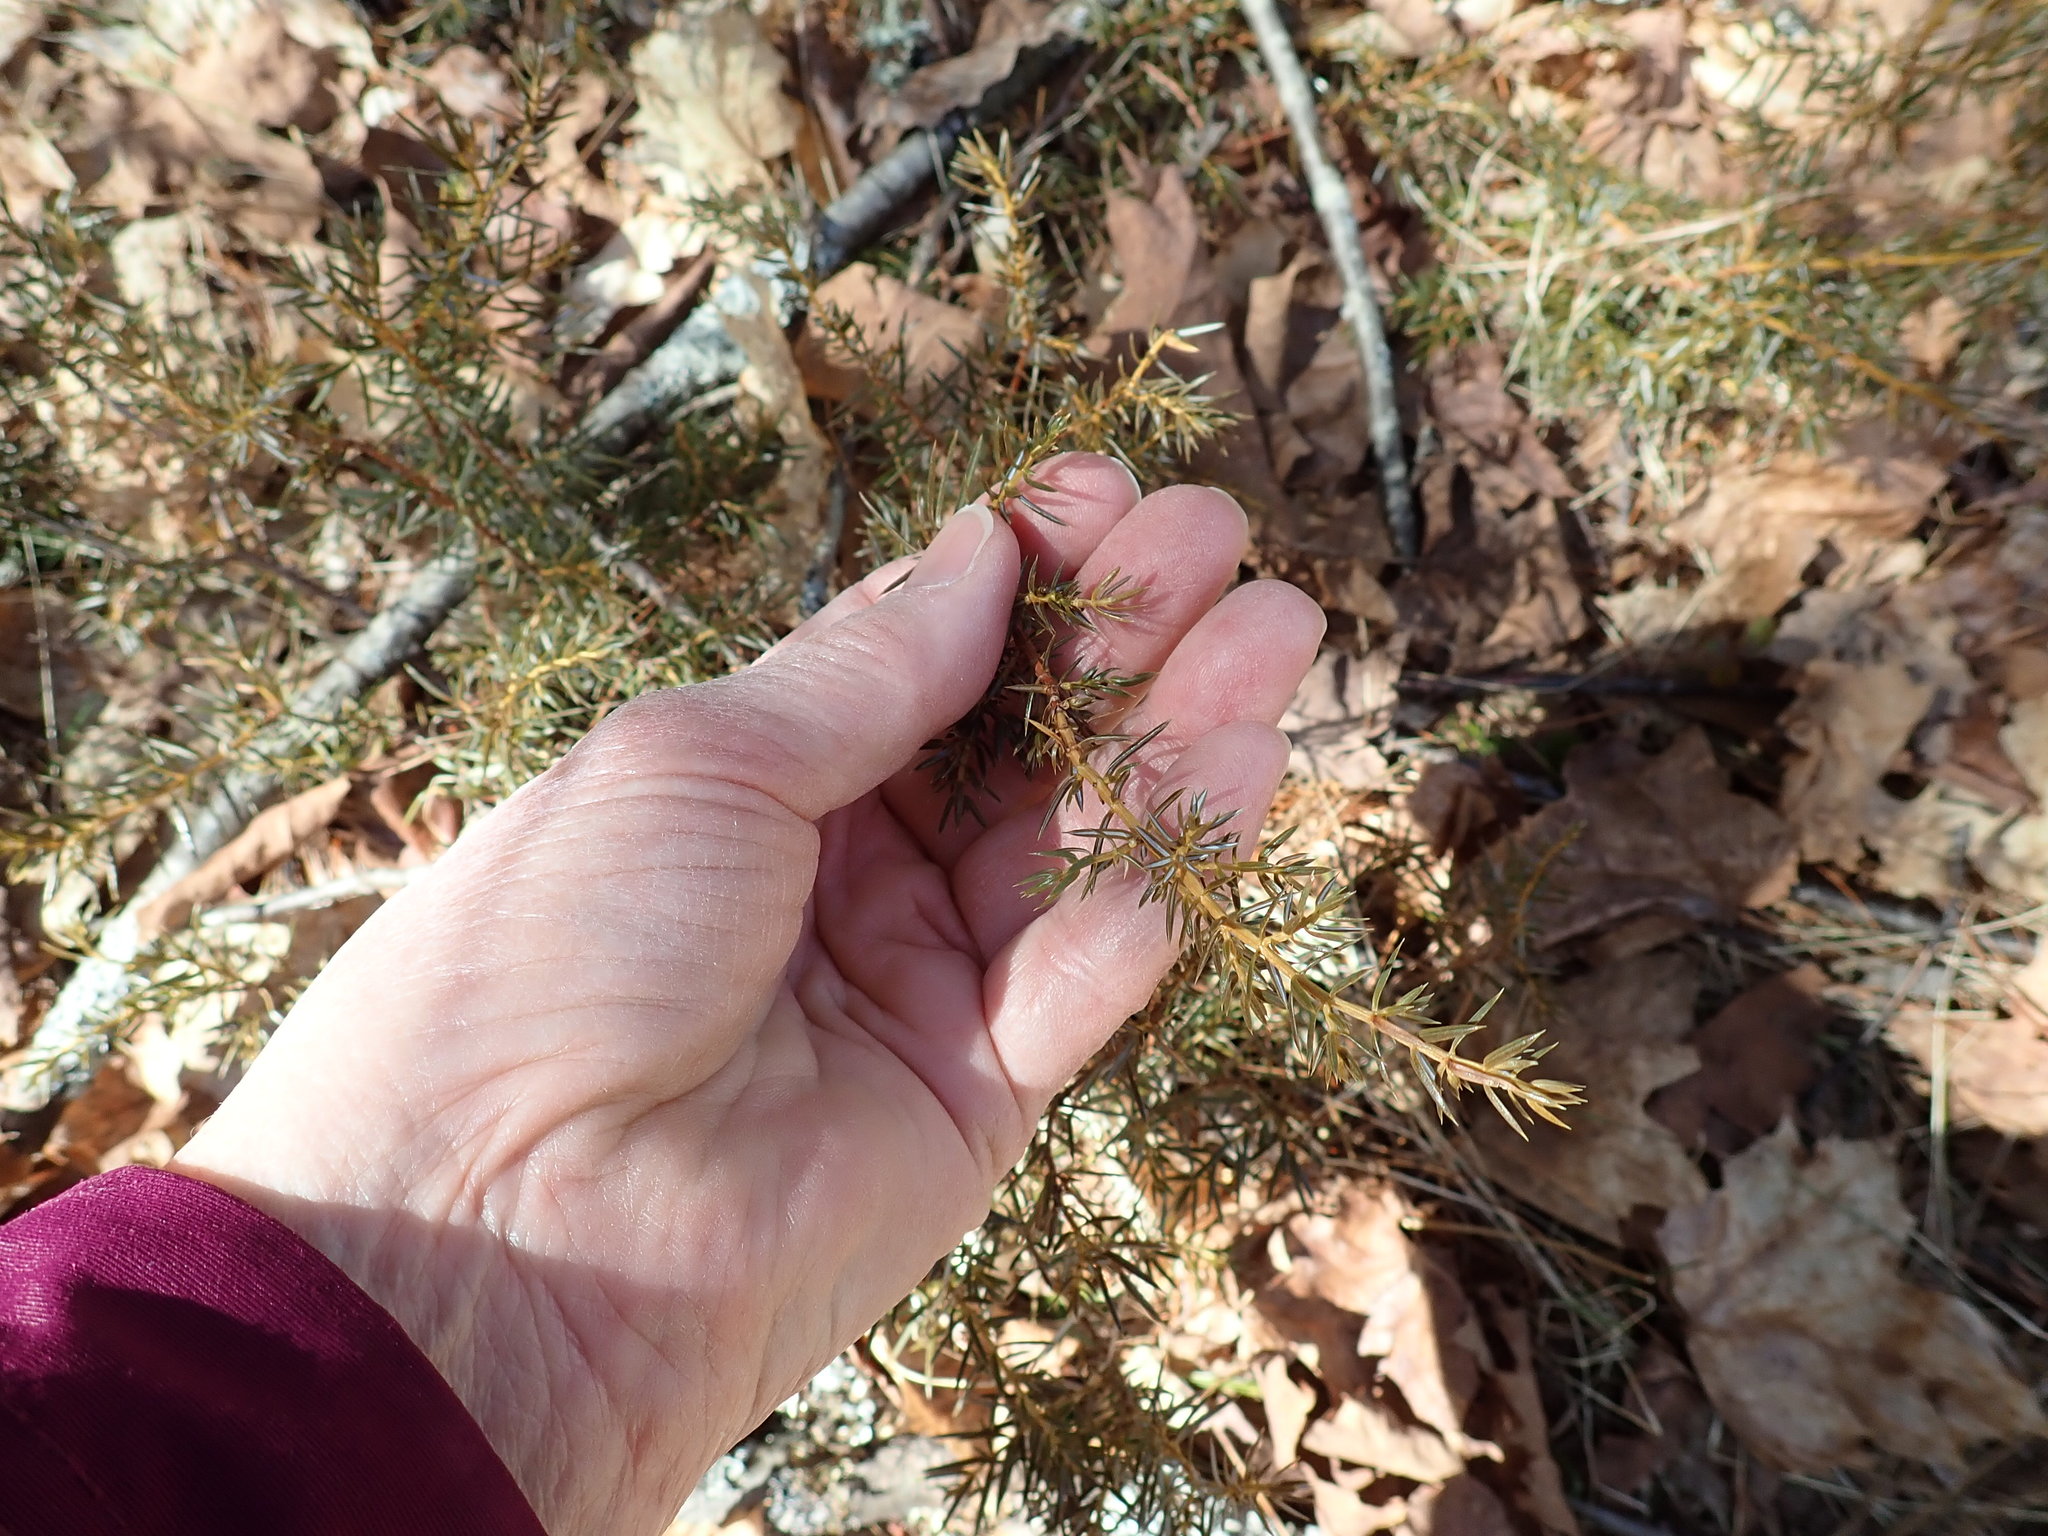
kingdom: Plantae
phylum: Tracheophyta
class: Pinopsida
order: Pinales
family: Cupressaceae
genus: Juniperus
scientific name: Juniperus communis
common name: Common juniper
